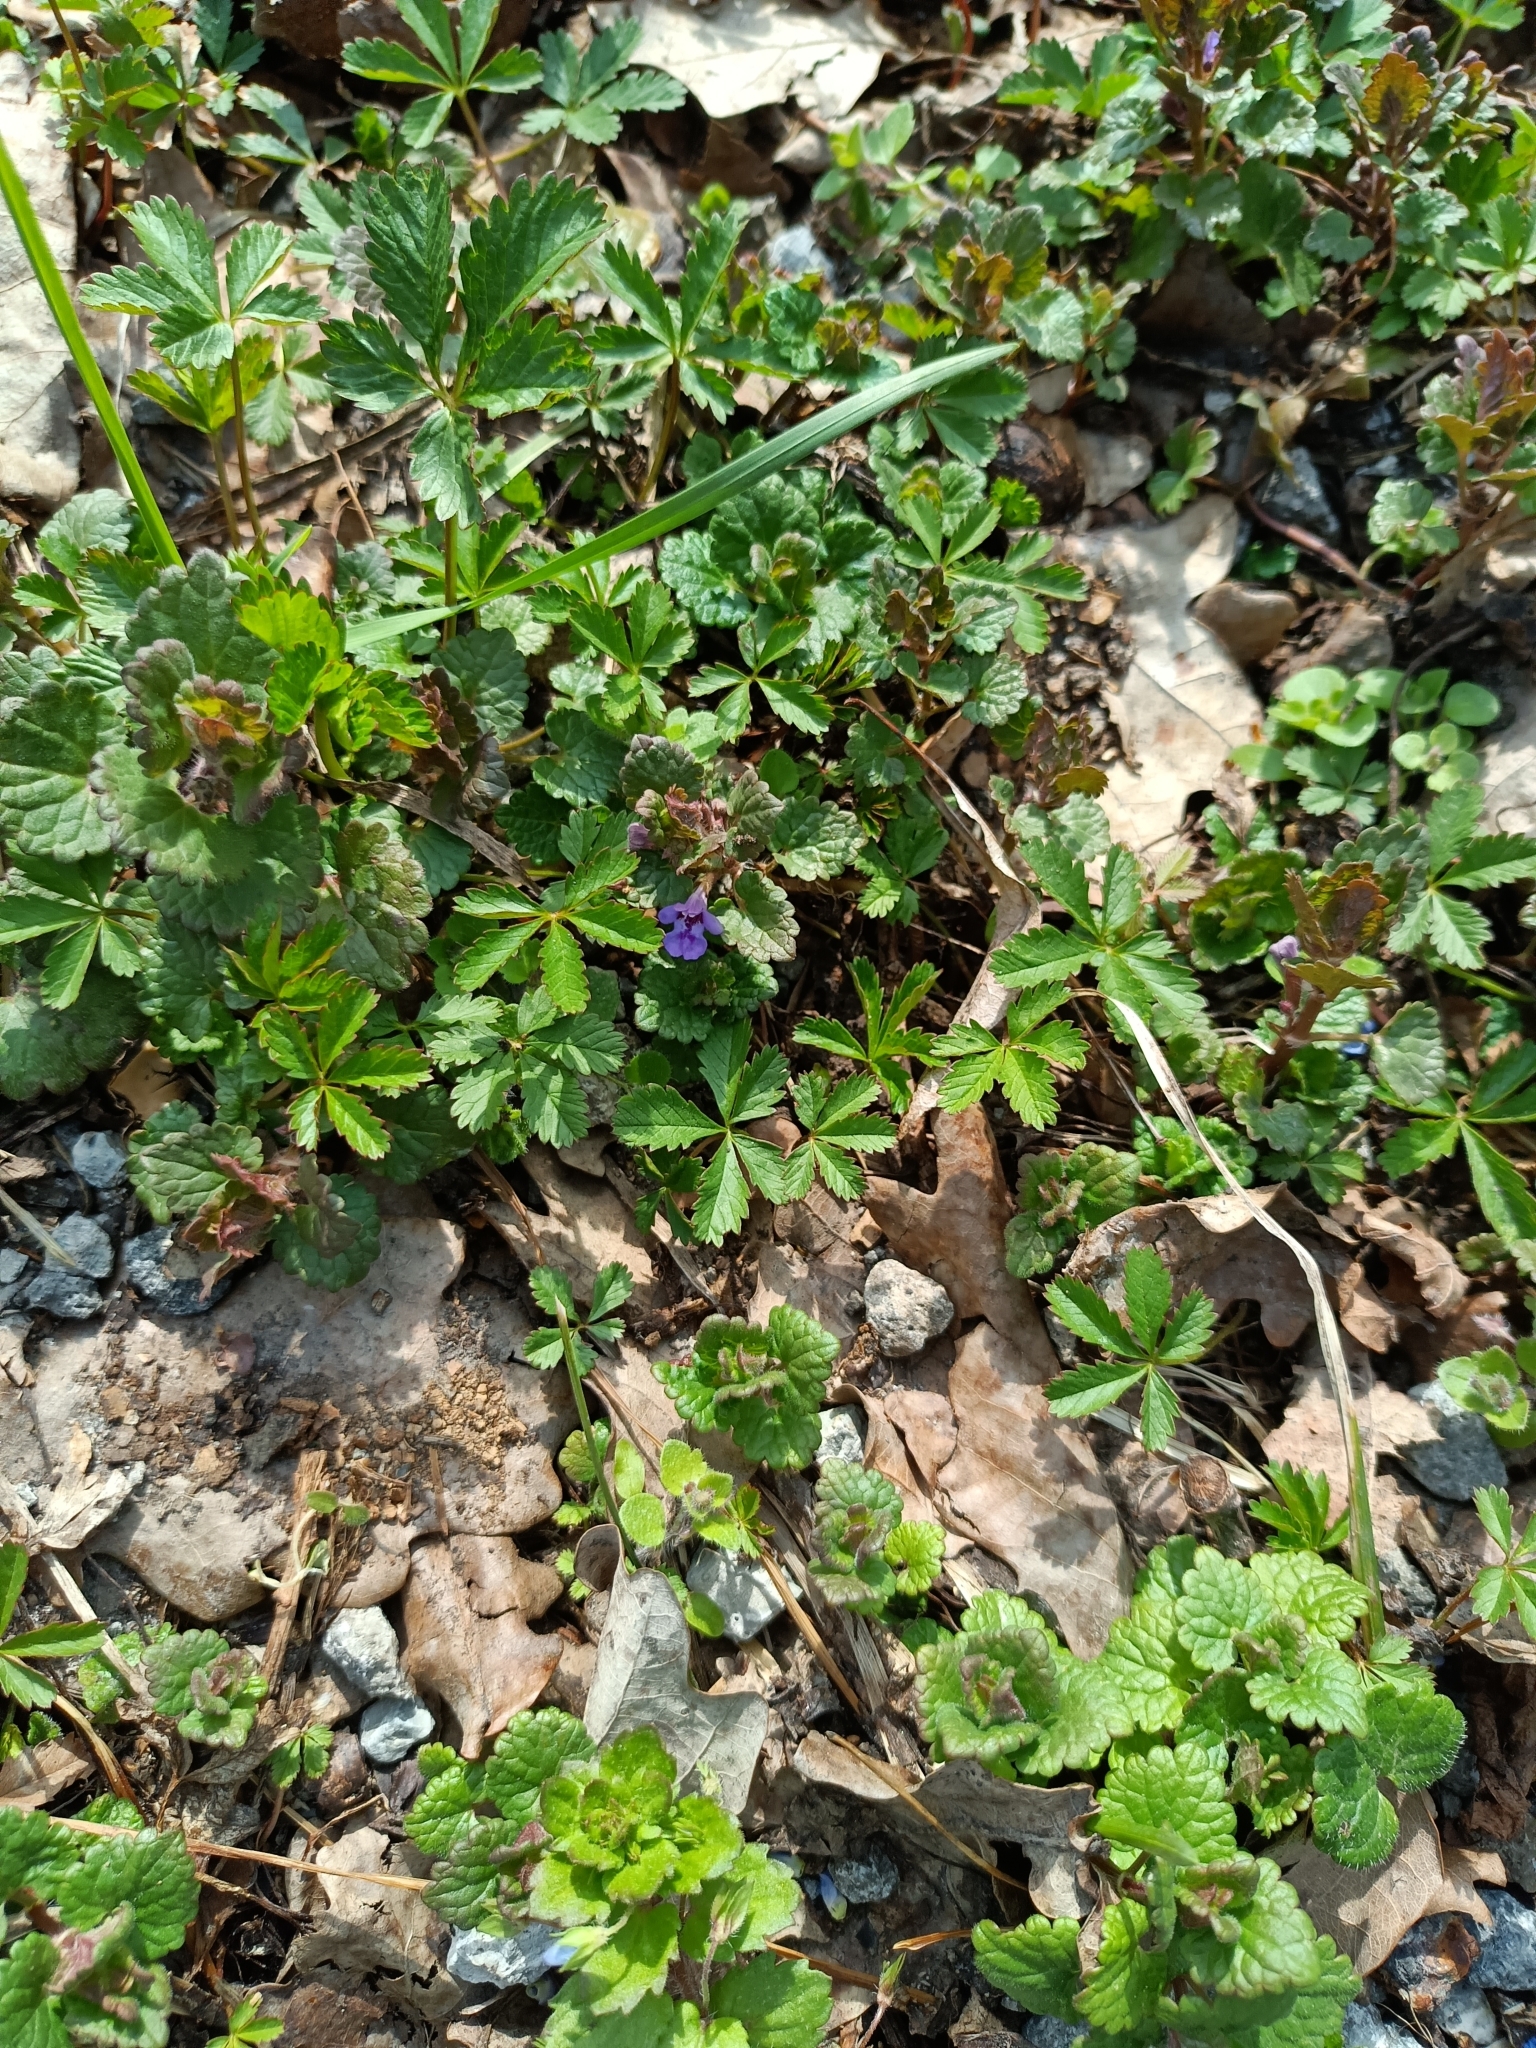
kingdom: Plantae
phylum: Tracheophyta
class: Magnoliopsida
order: Lamiales
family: Lamiaceae
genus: Glechoma
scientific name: Glechoma hederacea
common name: Ground ivy
